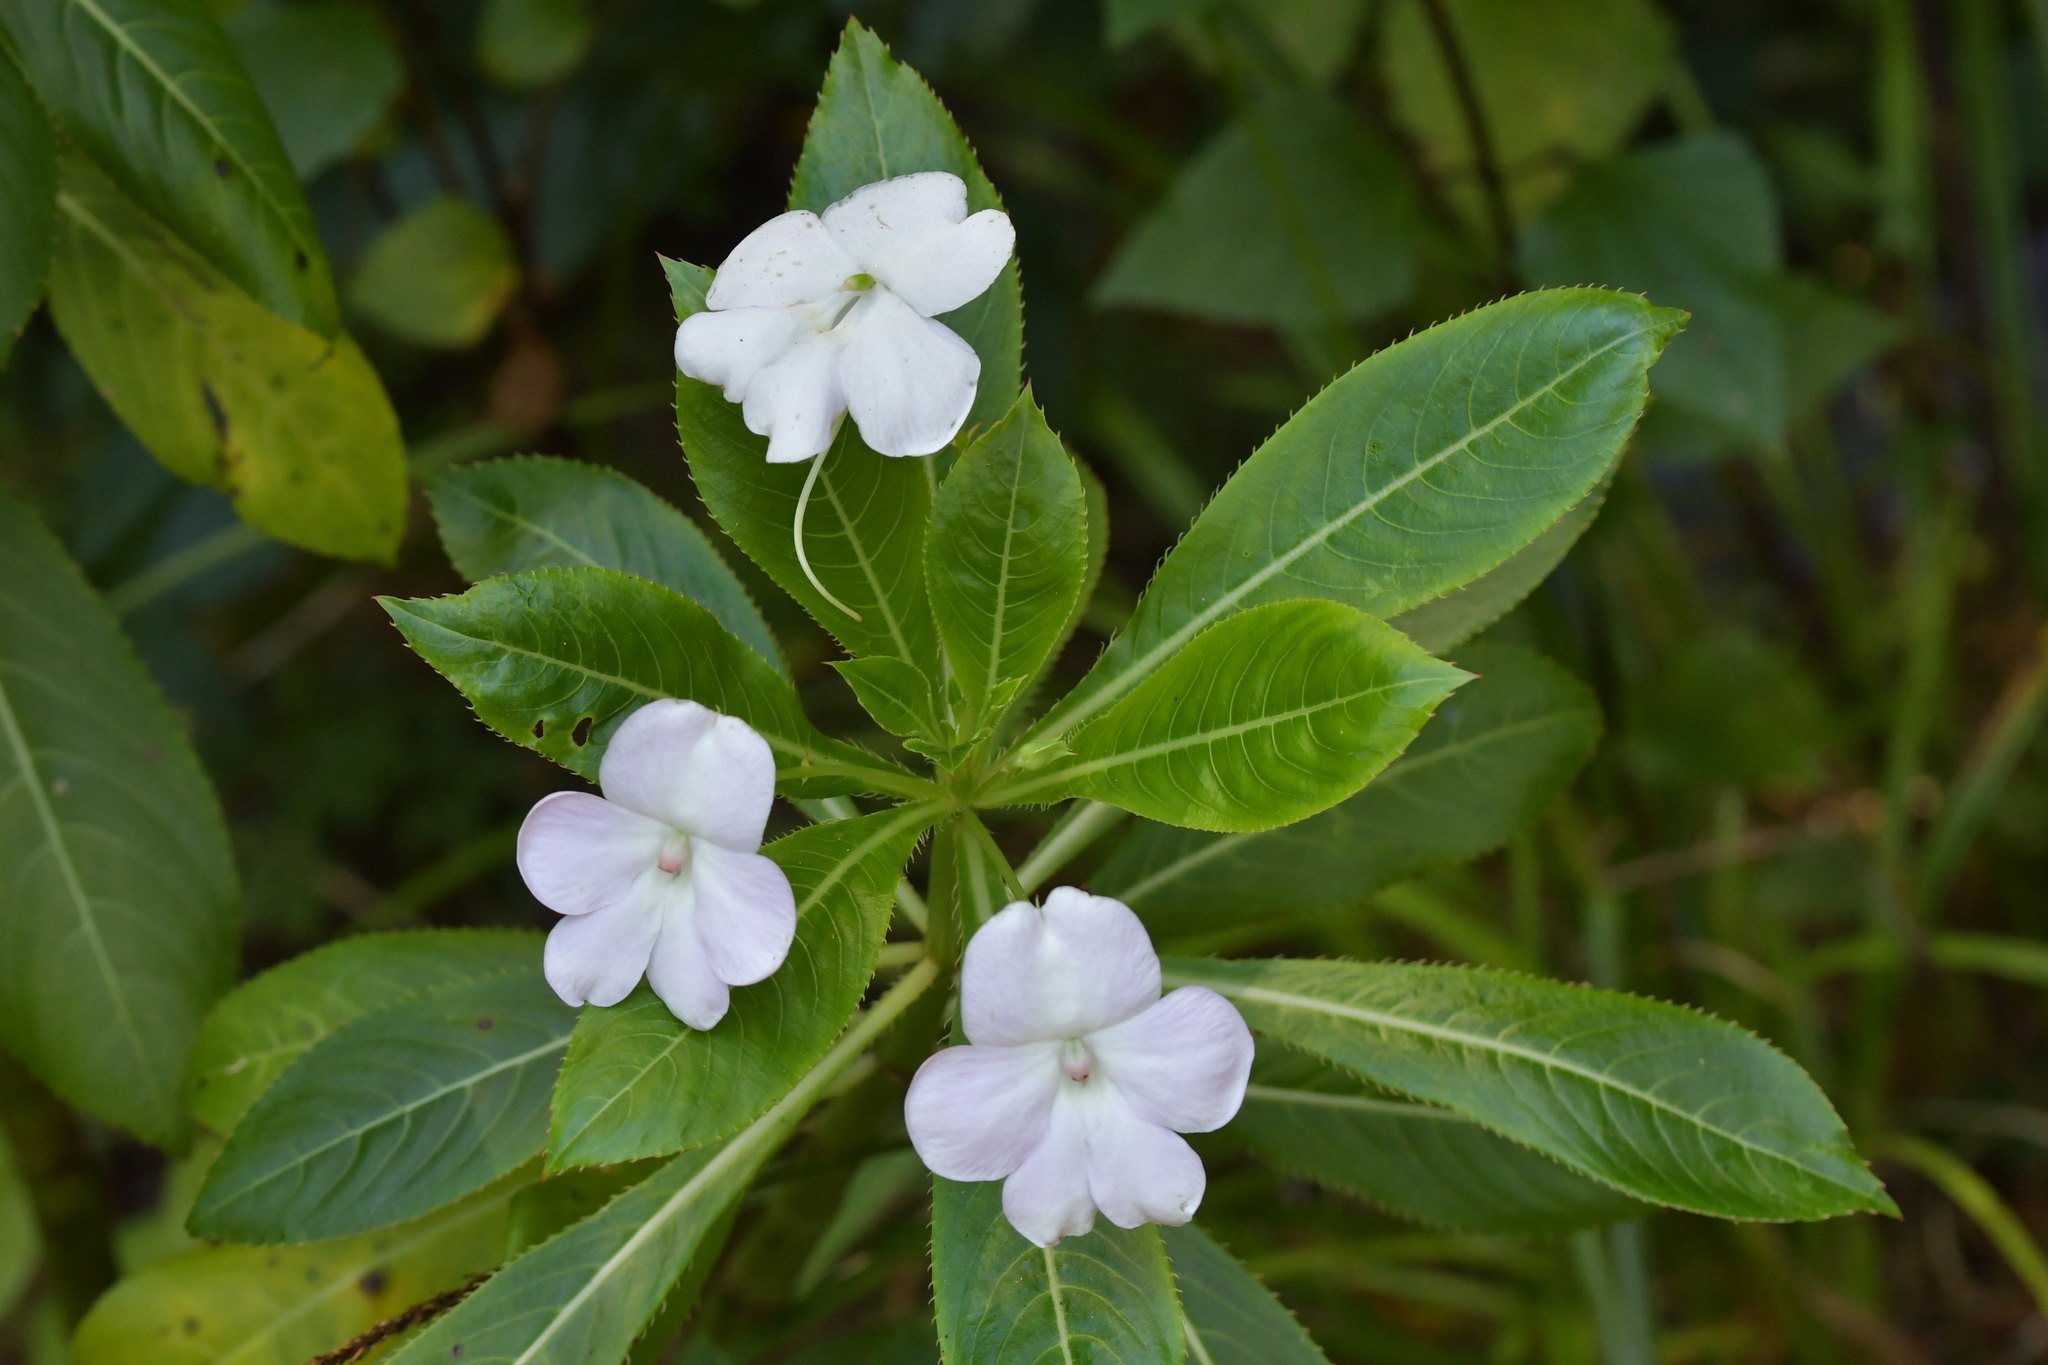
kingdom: Plantae
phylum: Tracheophyta
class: Magnoliopsida
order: Ericales
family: Balsaminaceae
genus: Impatiens
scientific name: Impatiens sodenii
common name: Oliver's touch-me-not
